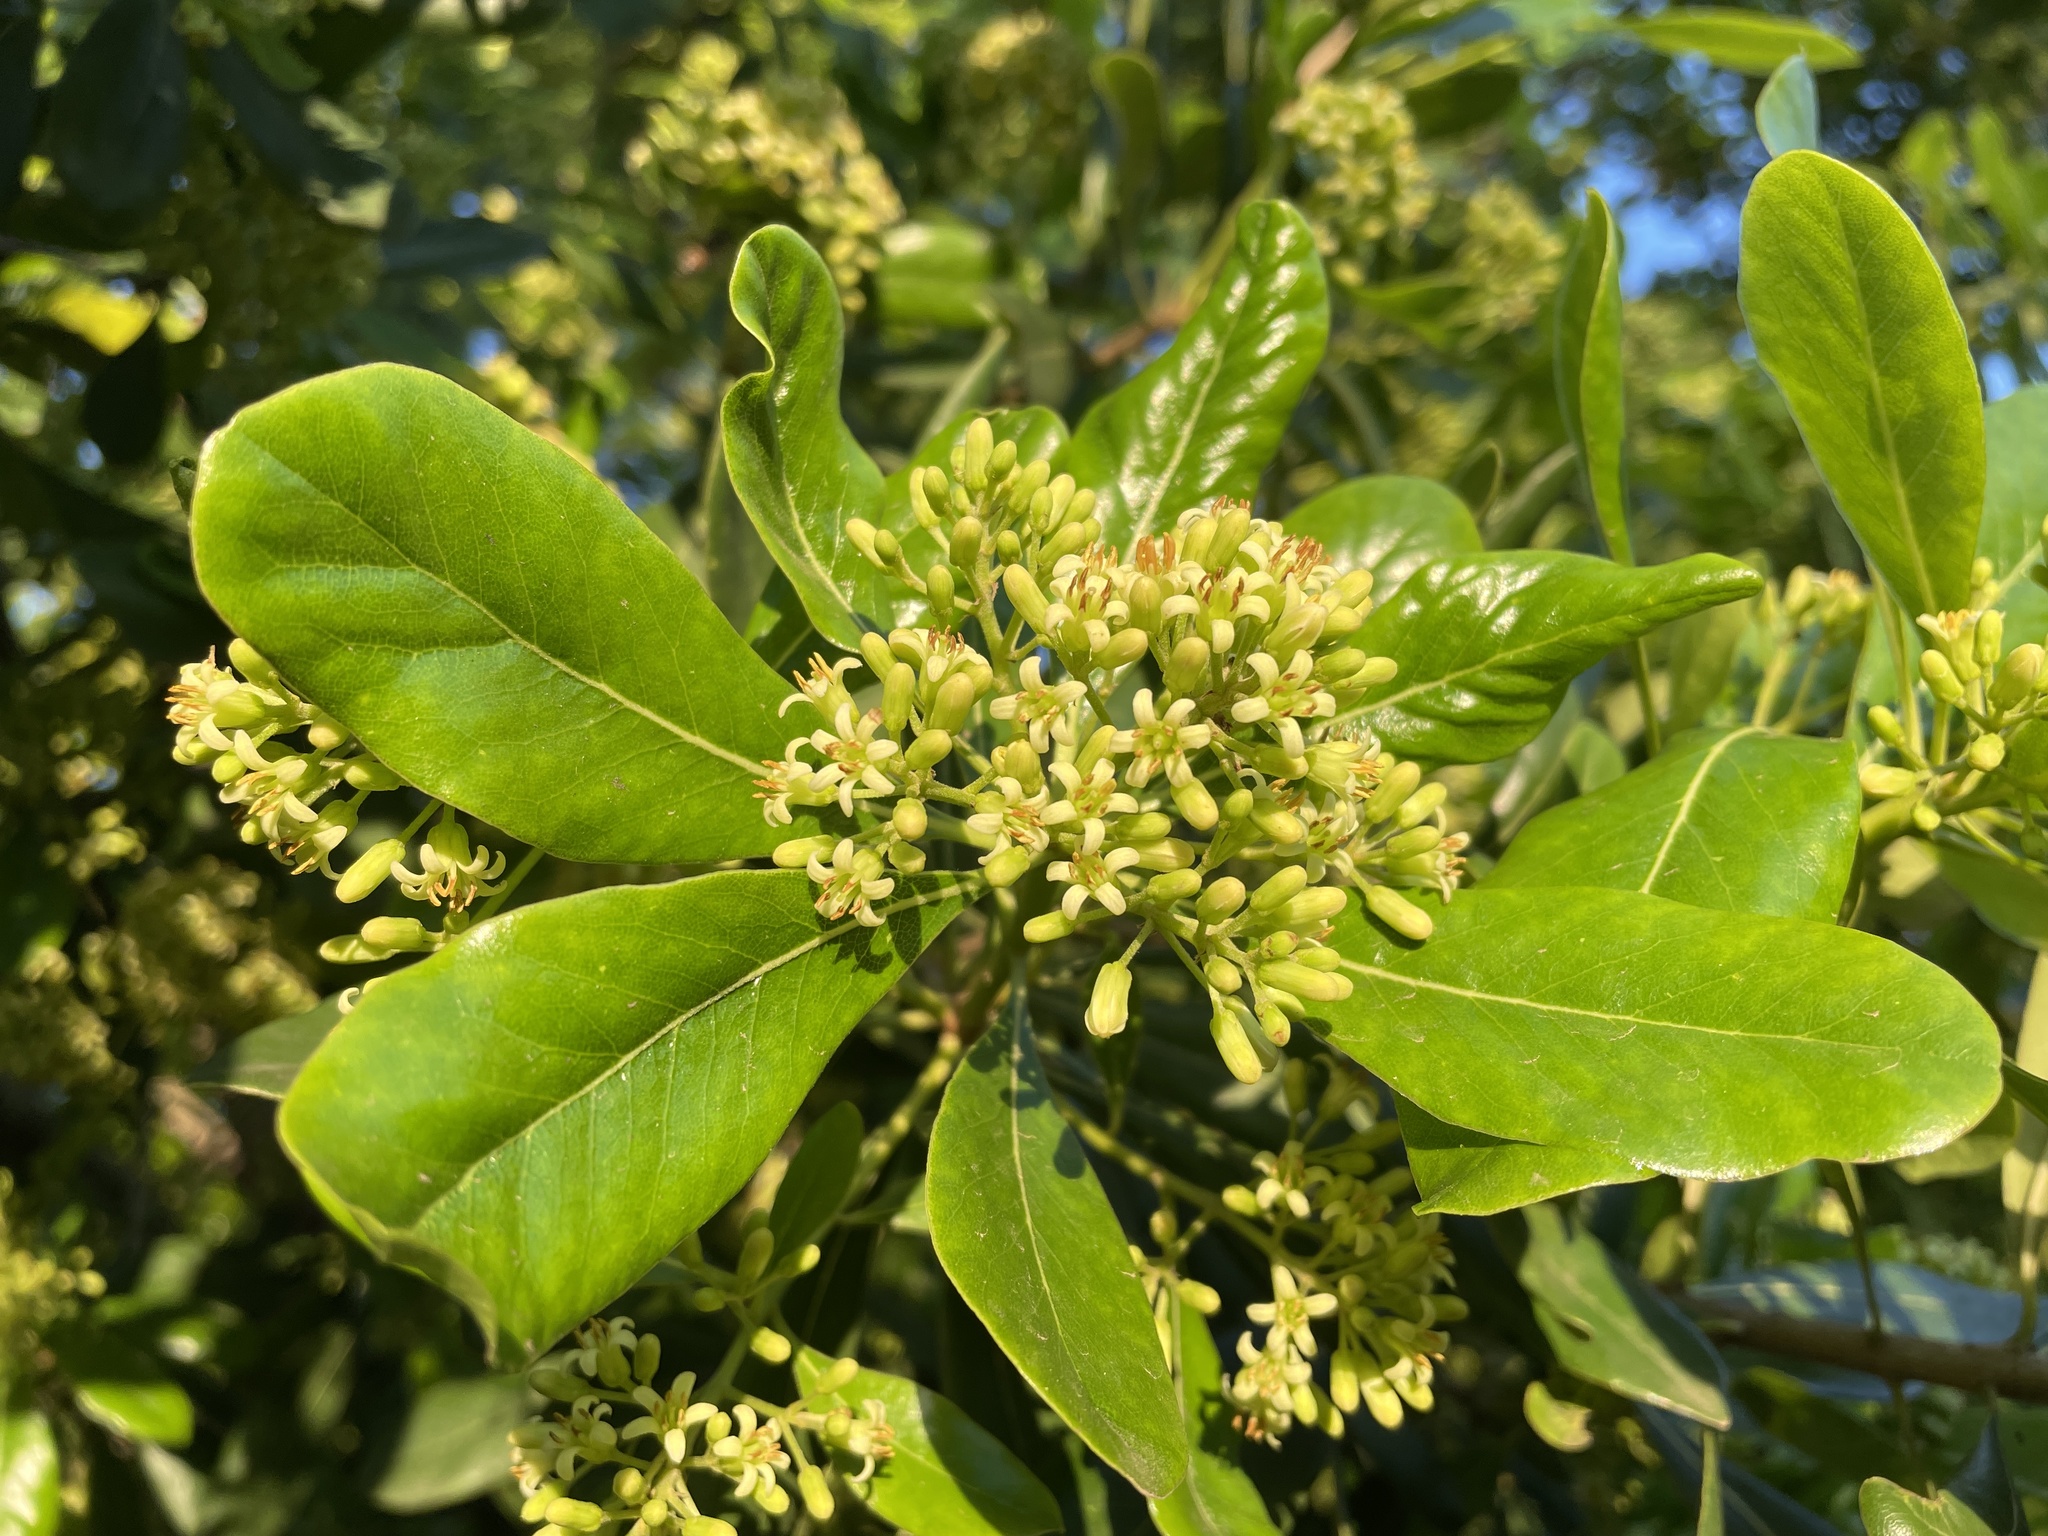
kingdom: Plantae
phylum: Tracheophyta
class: Magnoliopsida
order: Apiales
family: Pittosporaceae
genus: Pittosporum
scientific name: Pittosporum viridiflorum
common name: Cape cheesewood
